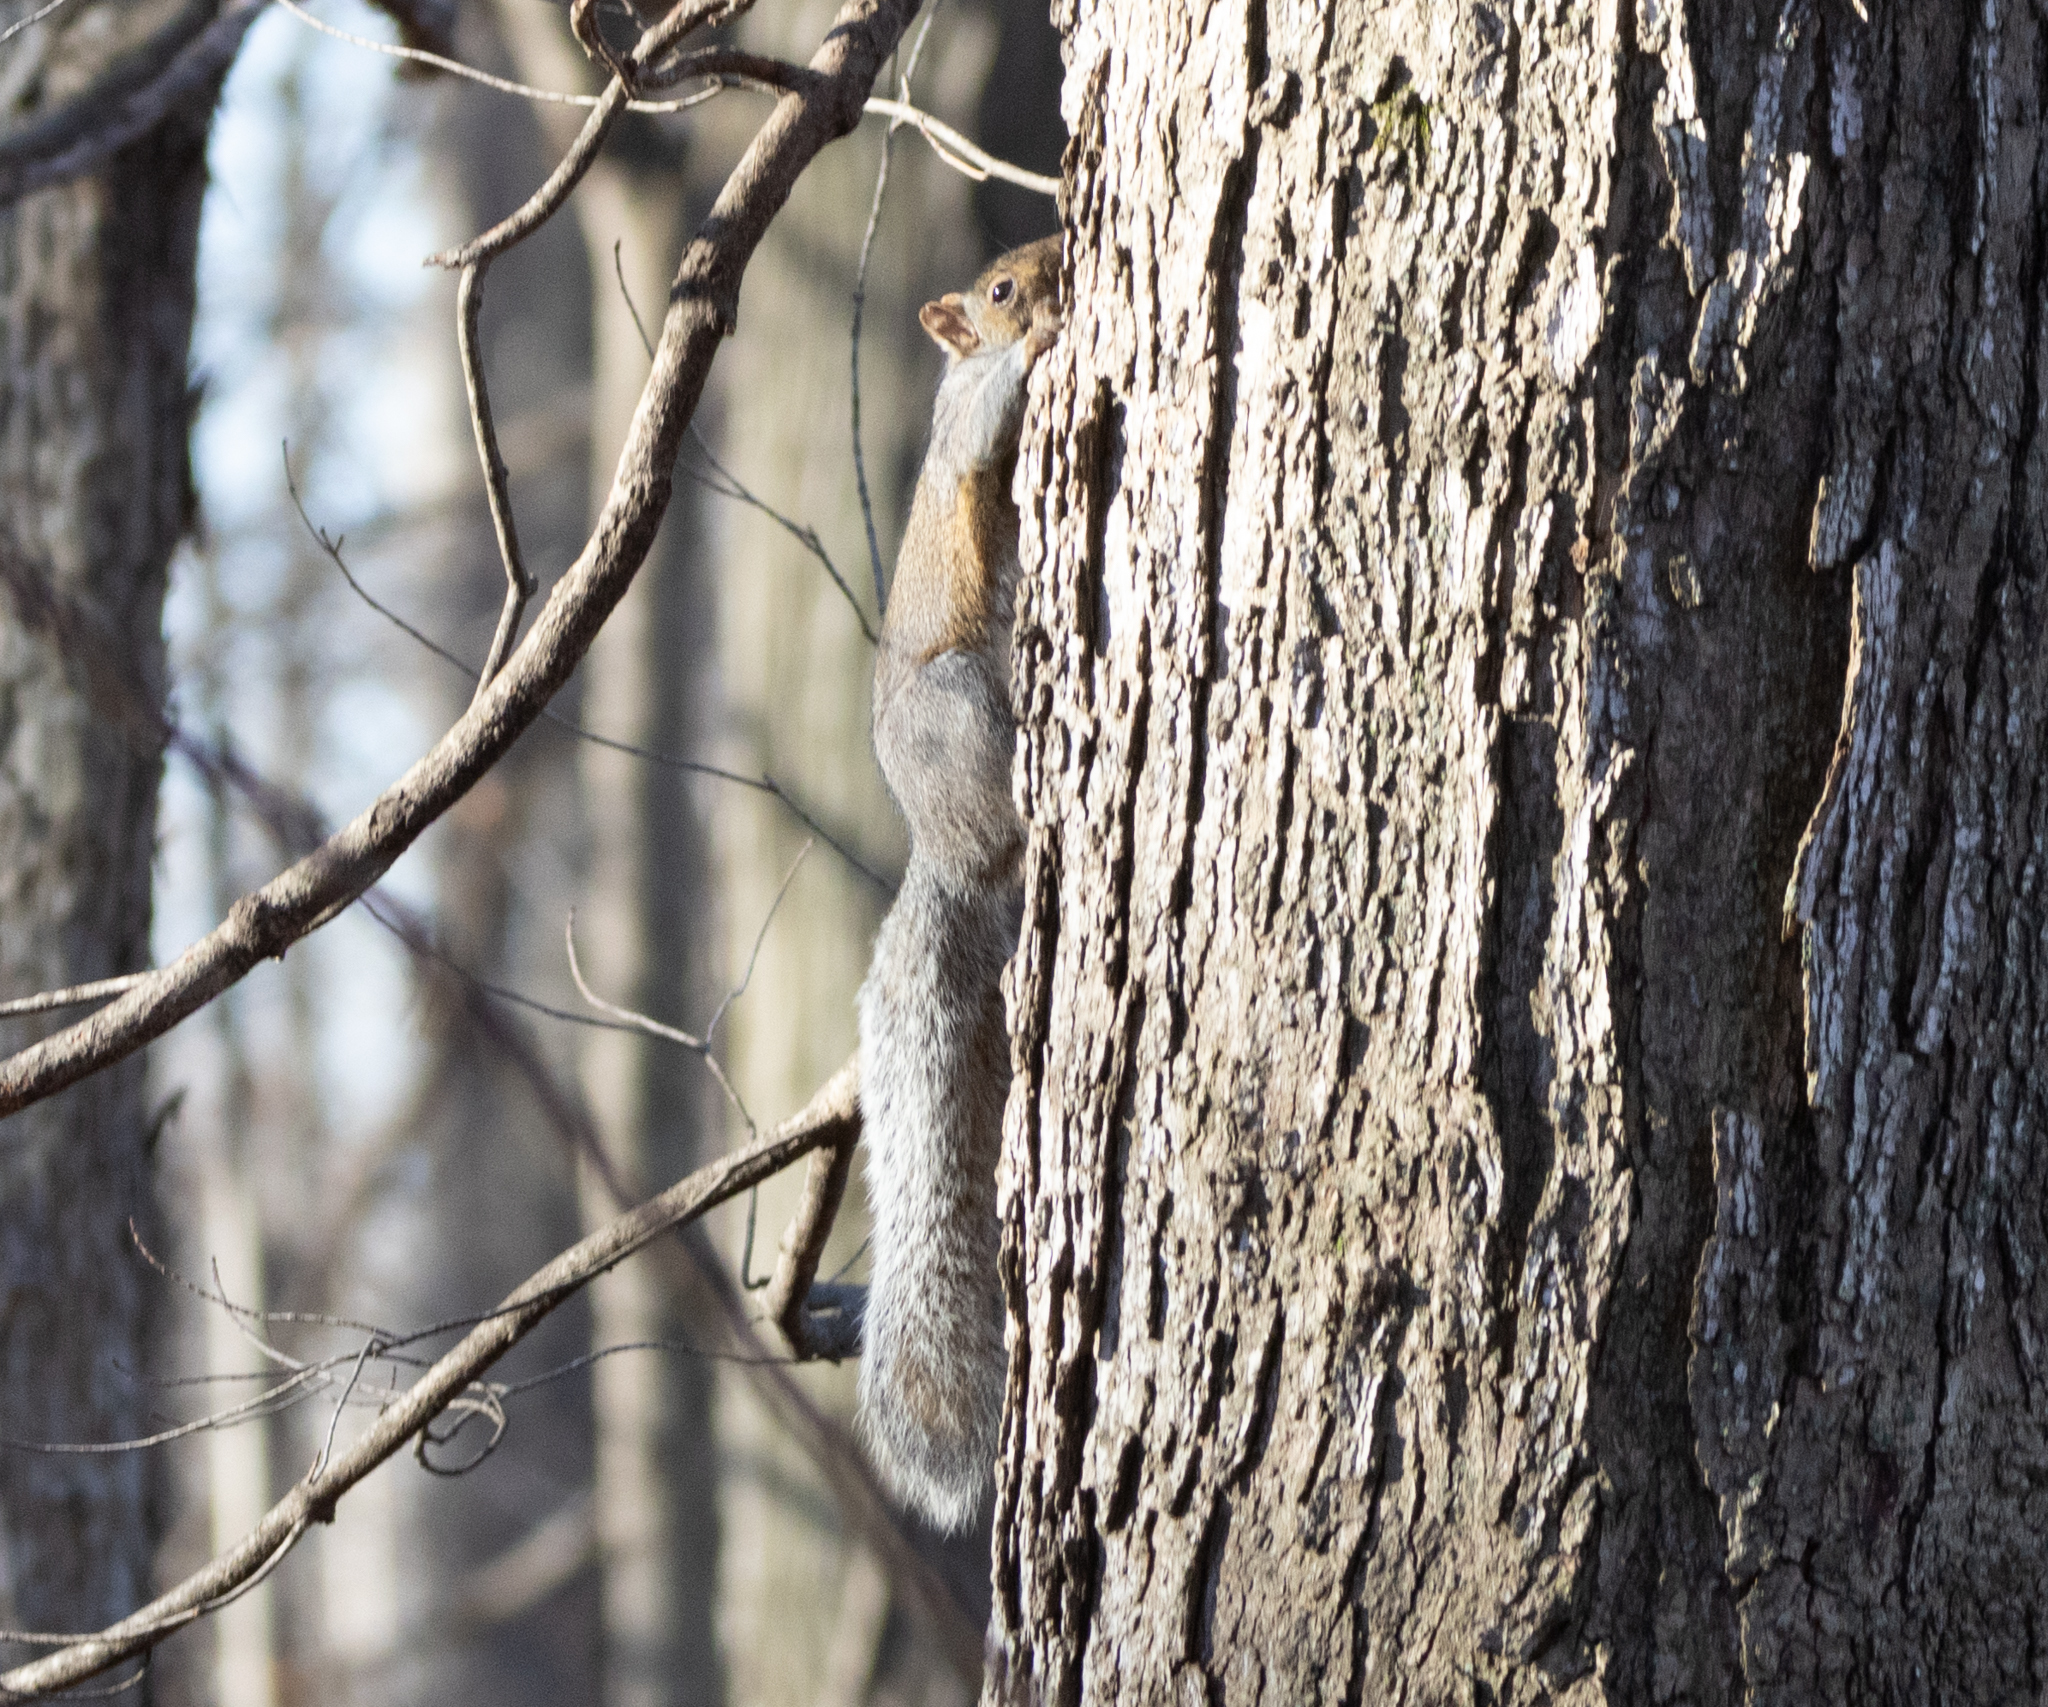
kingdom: Animalia
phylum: Chordata
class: Mammalia
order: Rodentia
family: Sciuridae
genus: Sciurus
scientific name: Sciurus carolinensis
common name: Eastern gray squirrel
